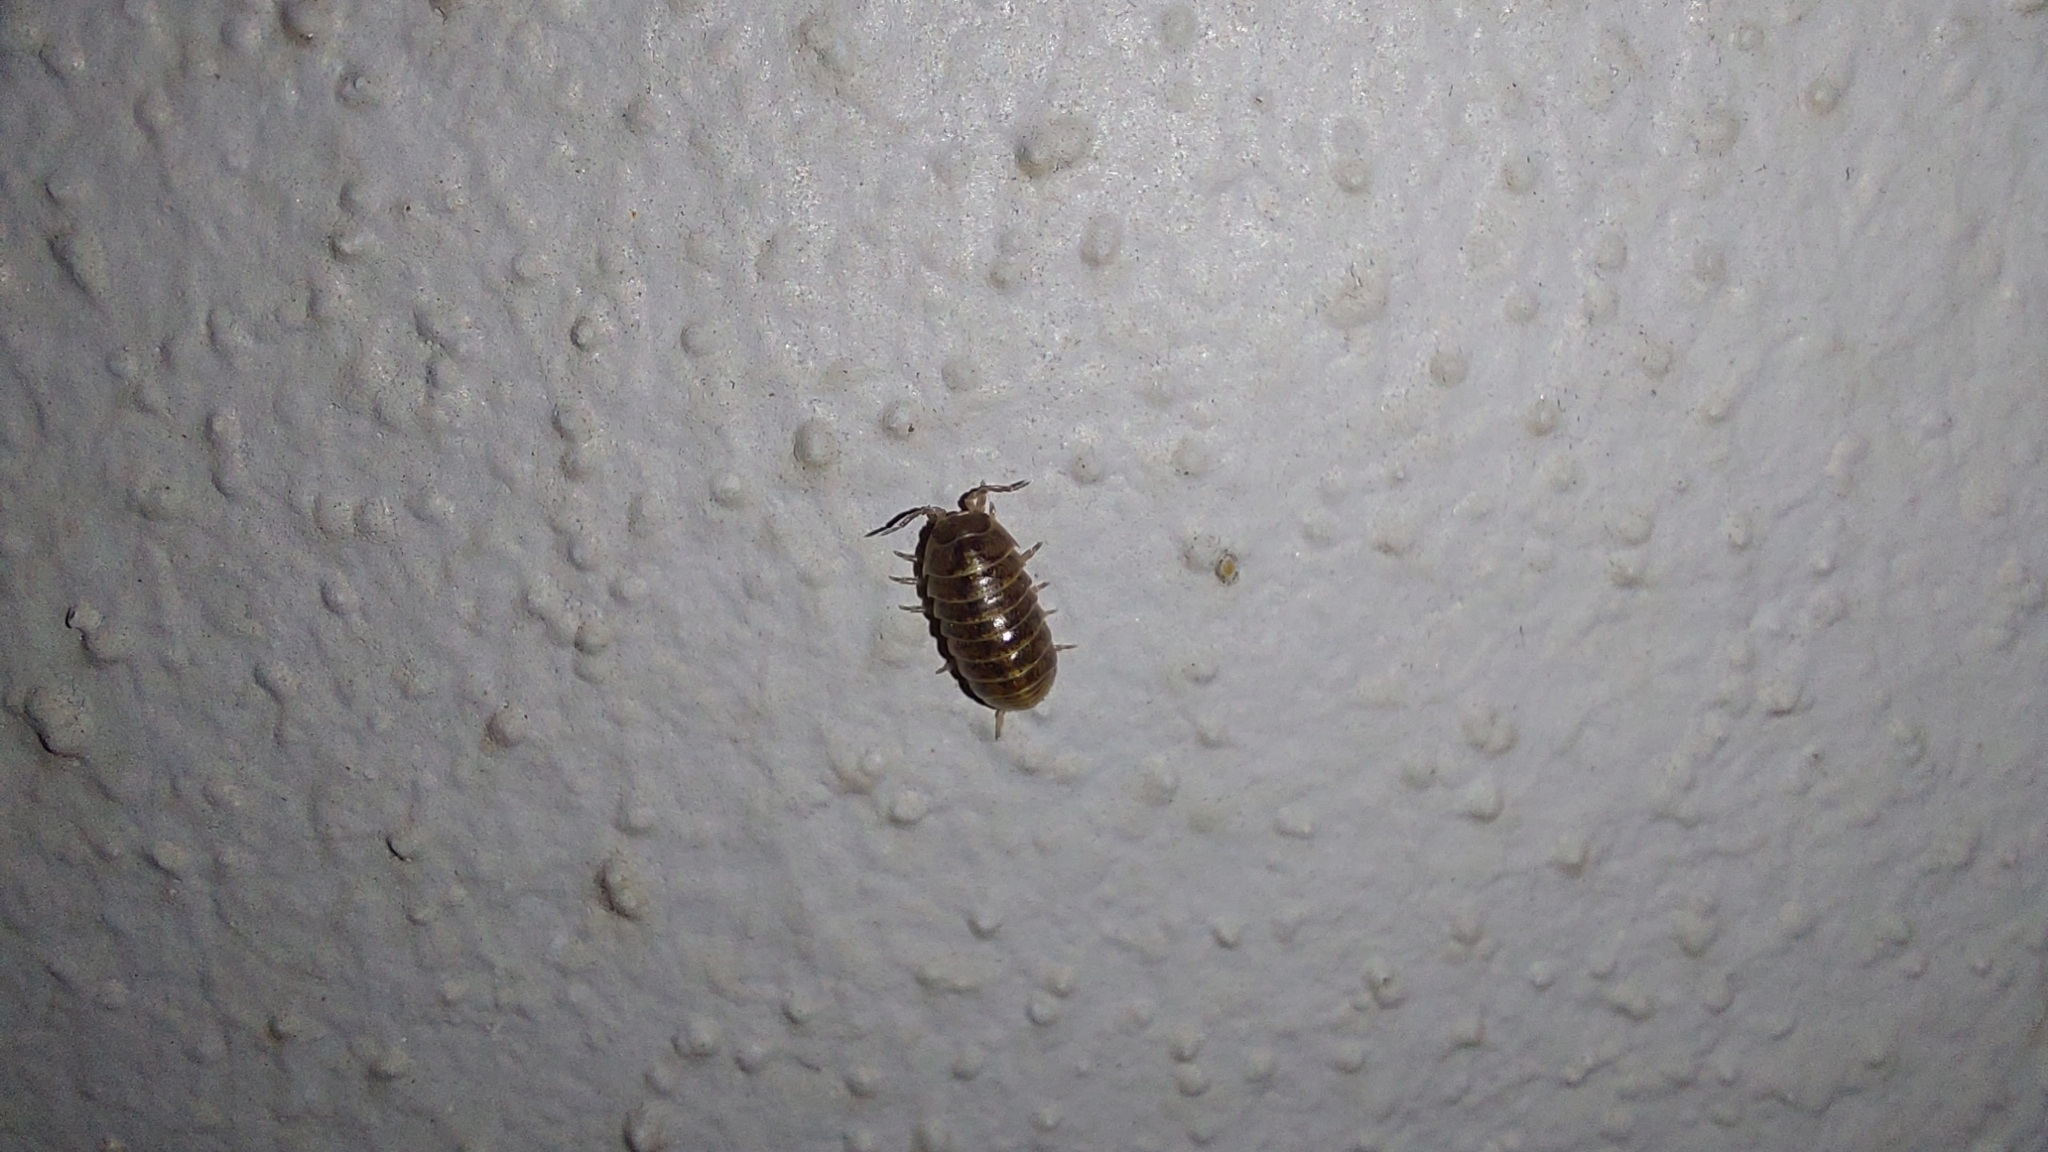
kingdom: Animalia
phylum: Arthropoda
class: Malacostraca
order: Isopoda
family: Armadillidiidae
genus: Armadillidium
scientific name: Armadillidium vulgare
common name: Common pill woodlouse
